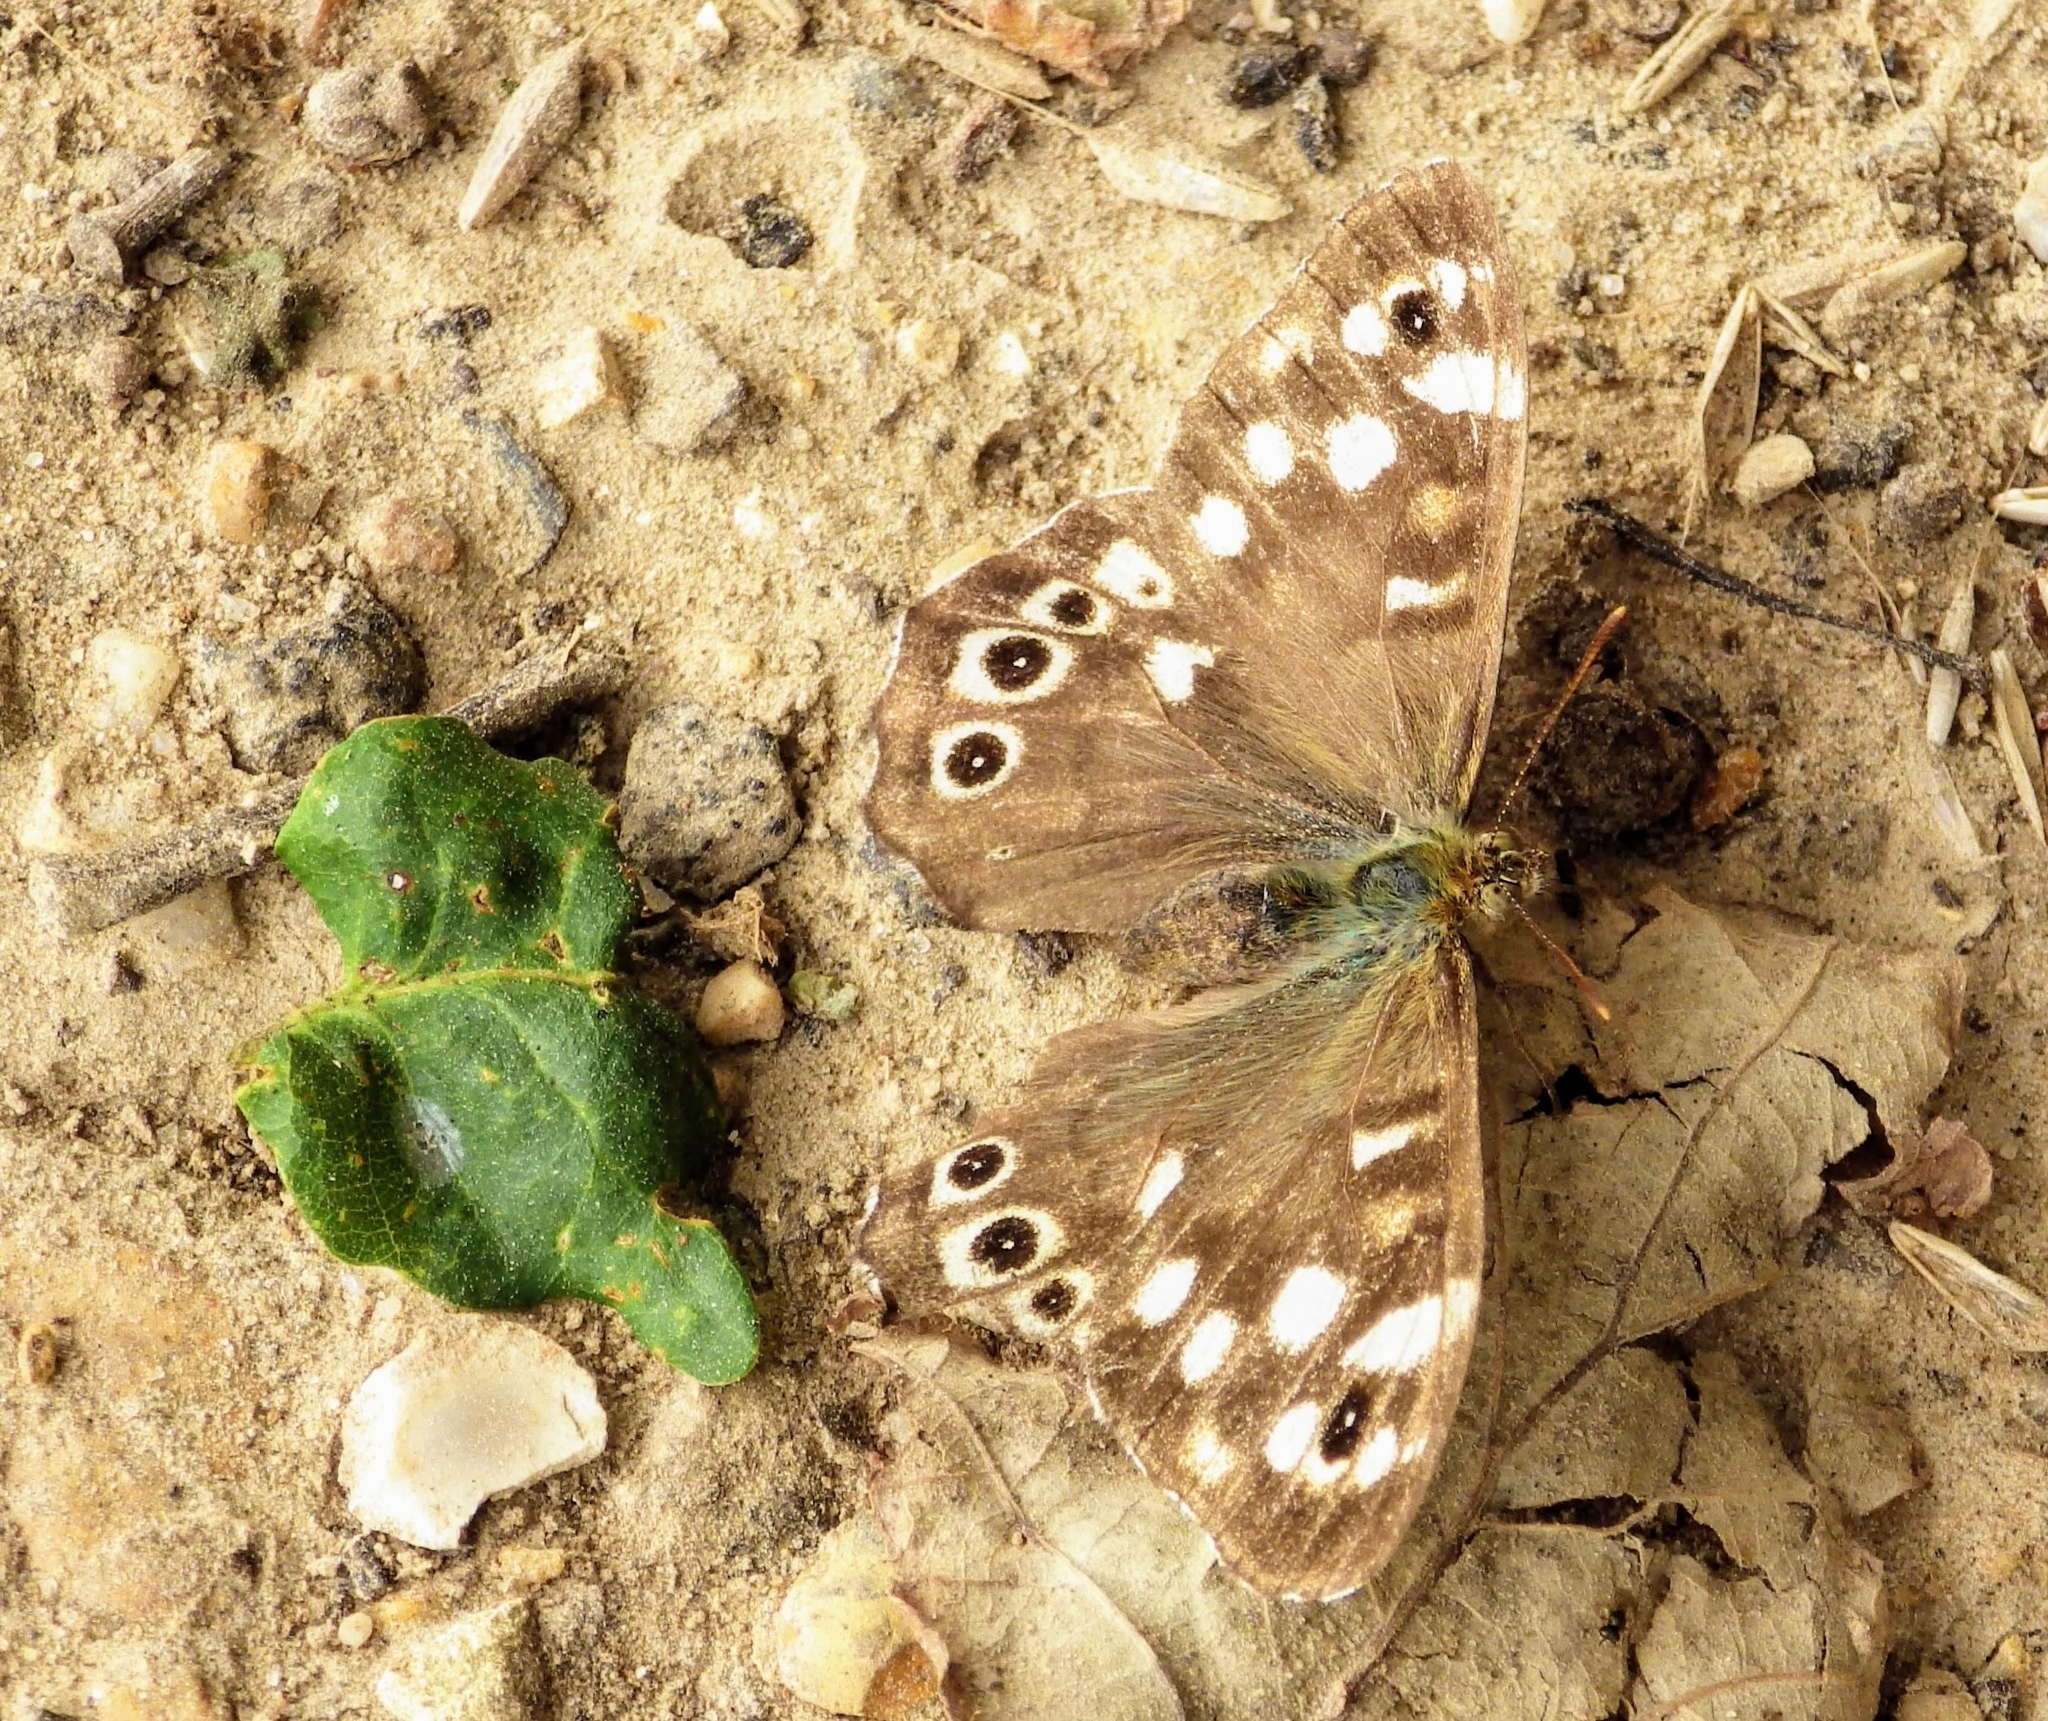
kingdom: Animalia
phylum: Arthropoda
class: Insecta
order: Lepidoptera
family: Nymphalidae
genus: Pararge
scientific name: Pararge aegeria
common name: Speckled wood
